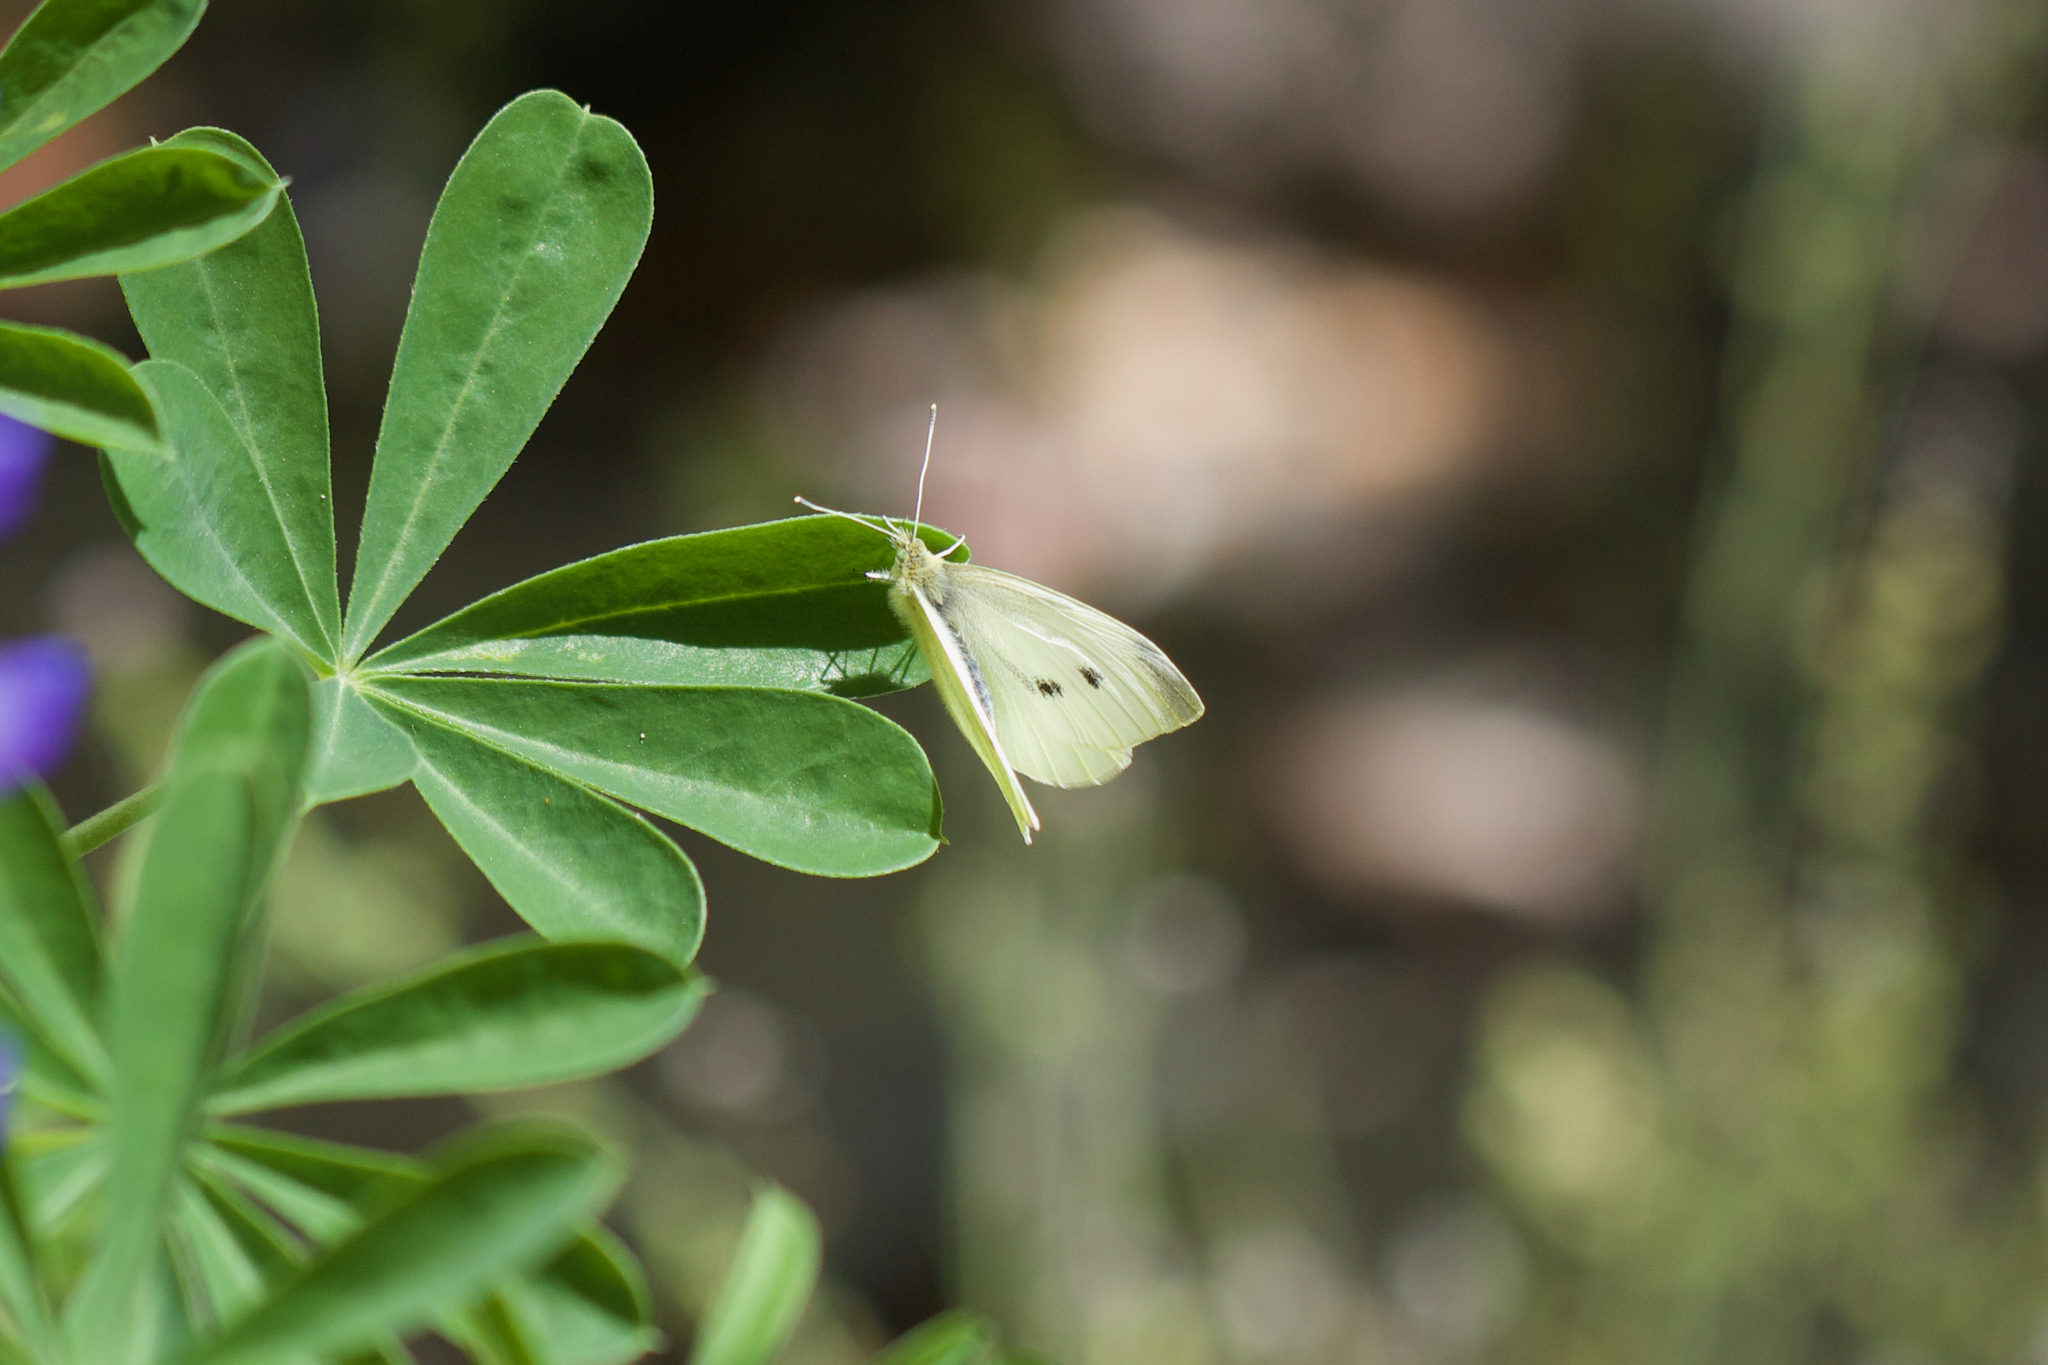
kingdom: Animalia
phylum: Arthropoda
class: Insecta
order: Lepidoptera
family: Pieridae
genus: Pieris
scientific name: Pieris rapae
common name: Small white
